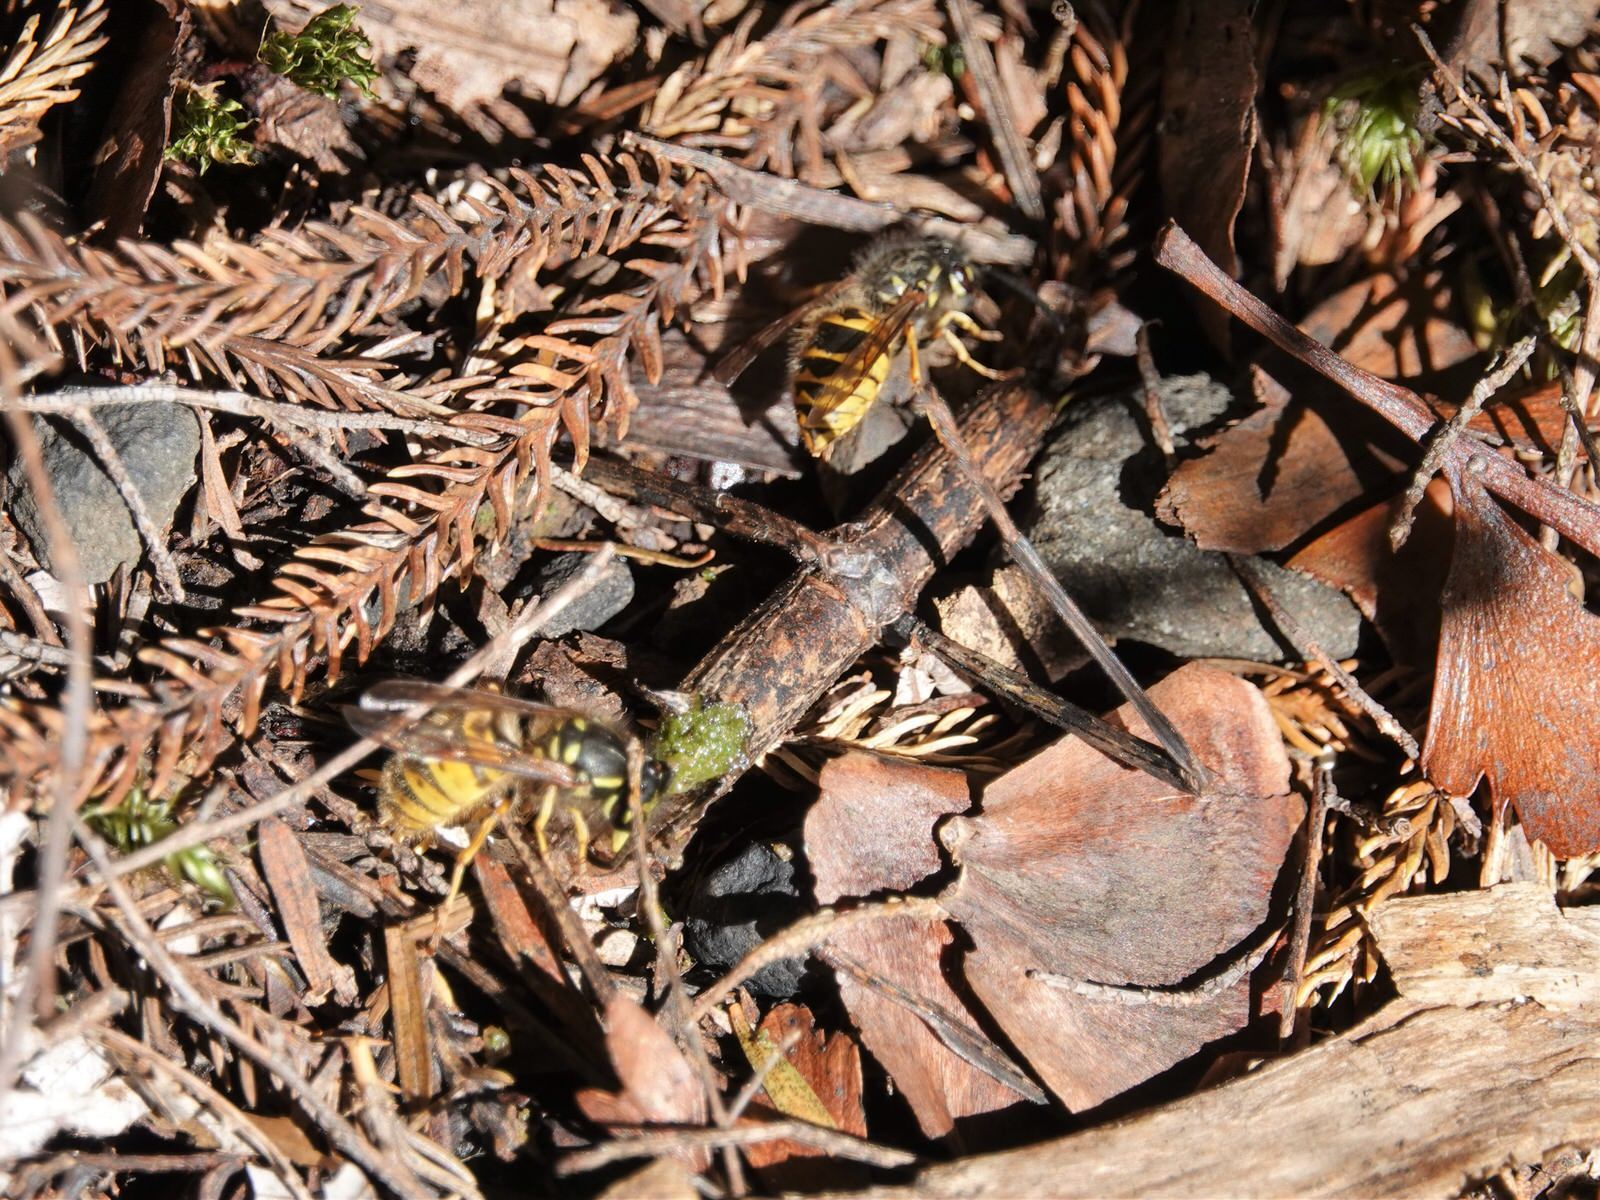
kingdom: Animalia
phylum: Arthropoda
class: Insecta
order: Hymenoptera
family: Vespidae
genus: Vespula
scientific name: Vespula vulgaris
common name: Common wasp
